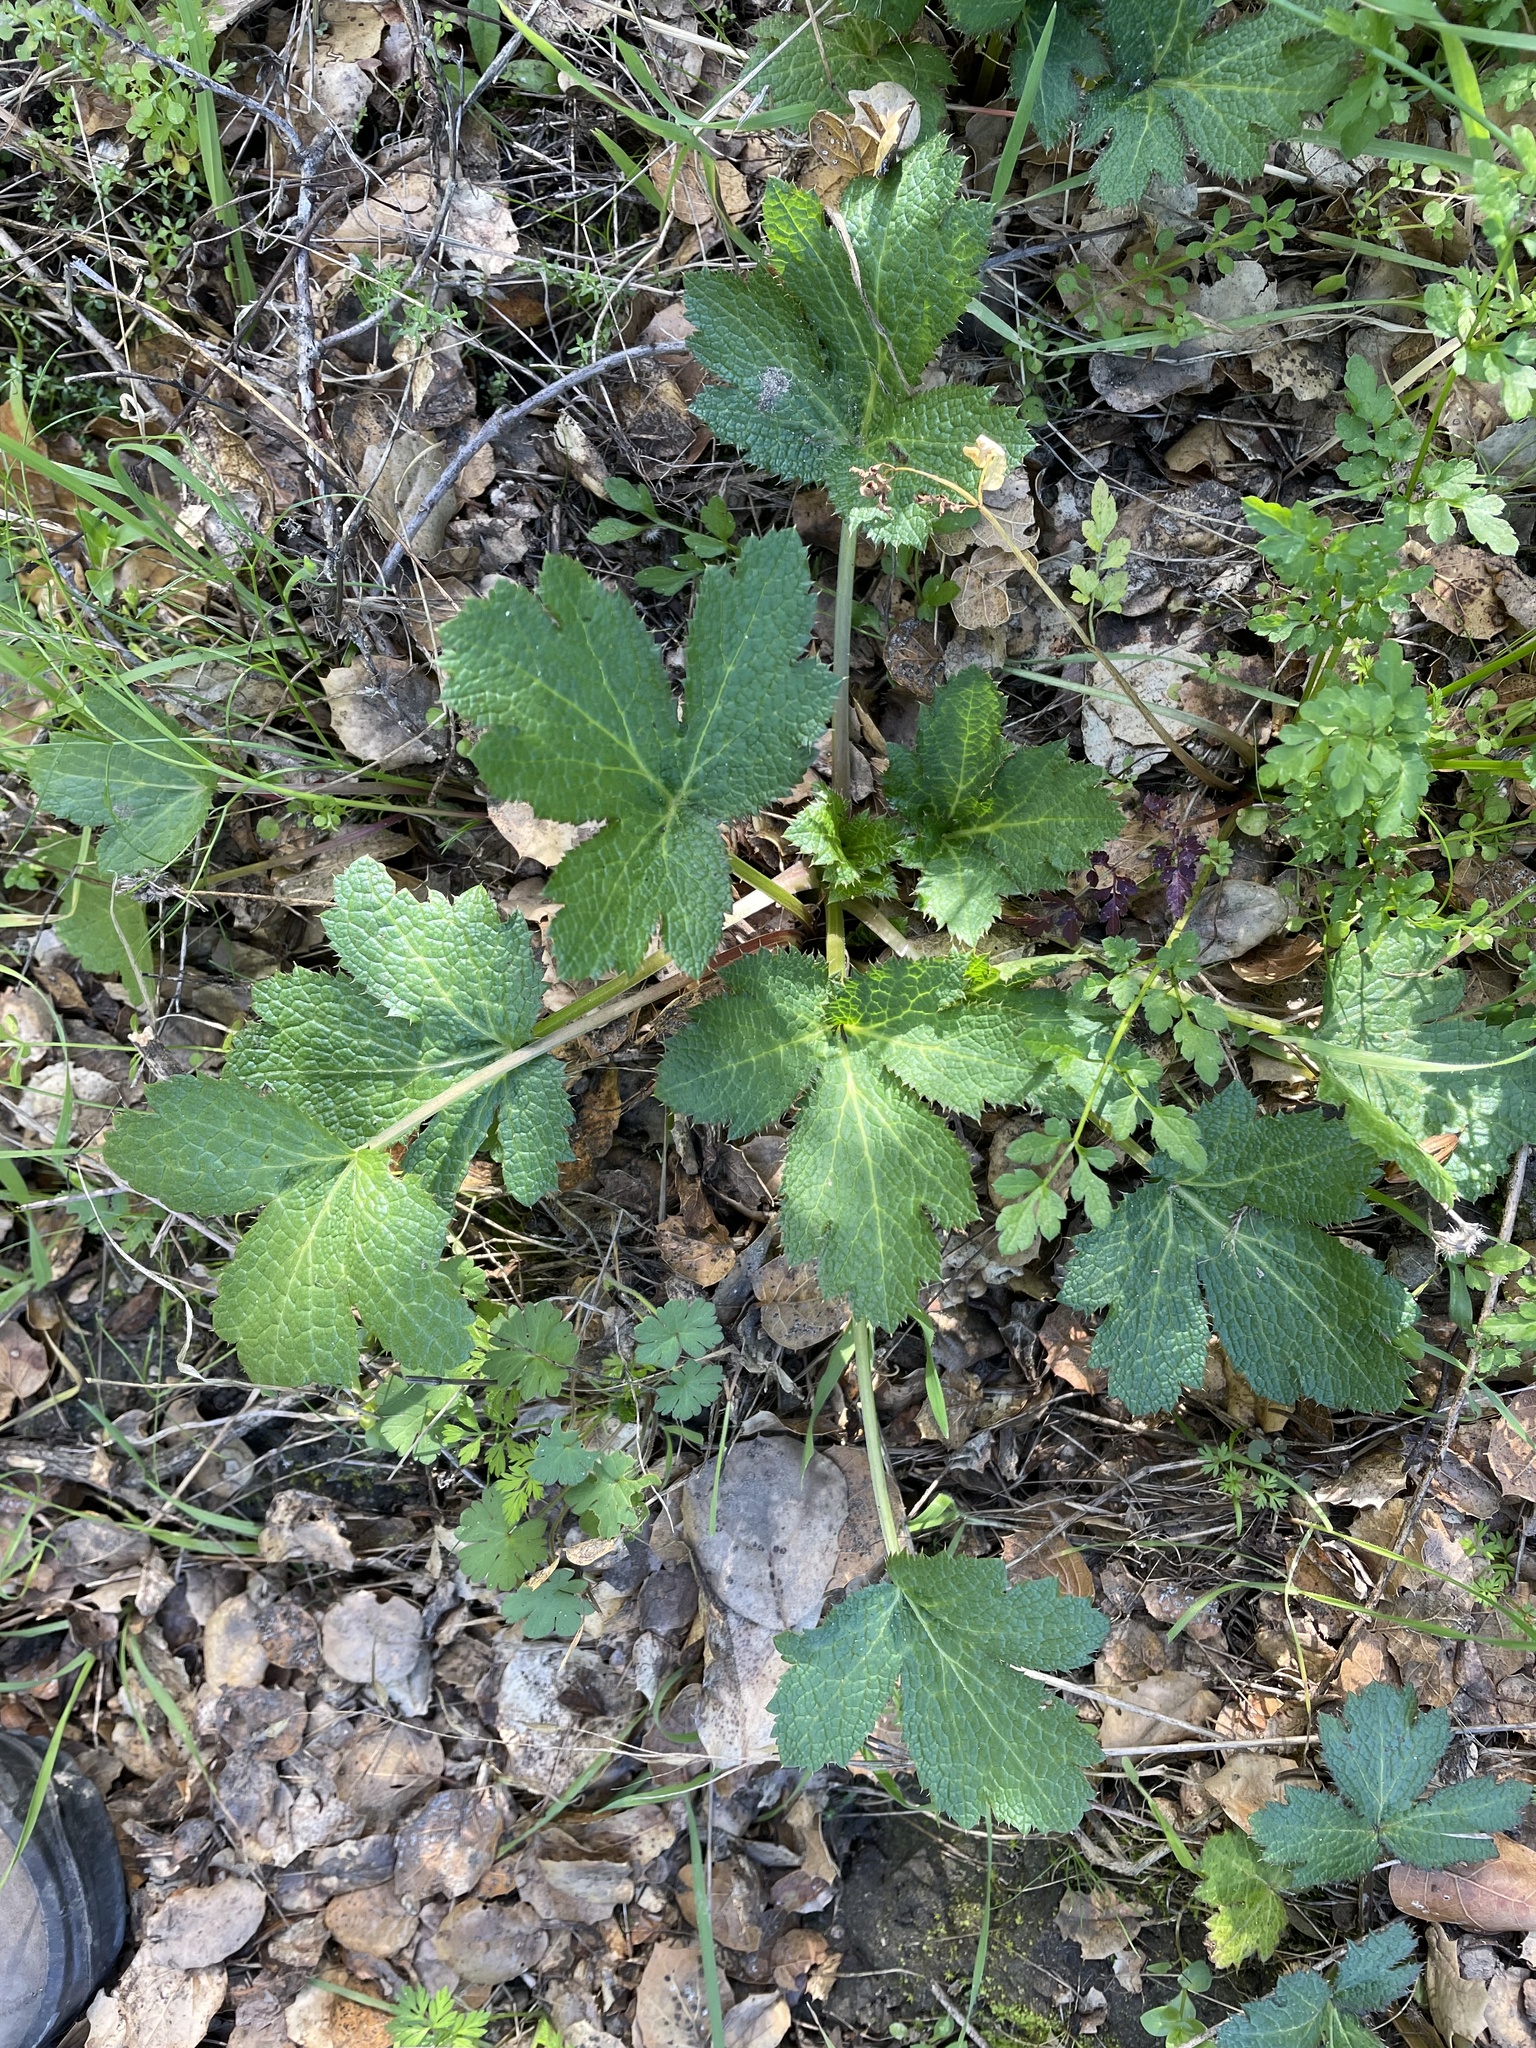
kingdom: Plantae
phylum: Tracheophyta
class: Magnoliopsida
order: Apiales
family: Apiaceae
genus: Sanicula
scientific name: Sanicula crassicaulis
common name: Western snakeroot
